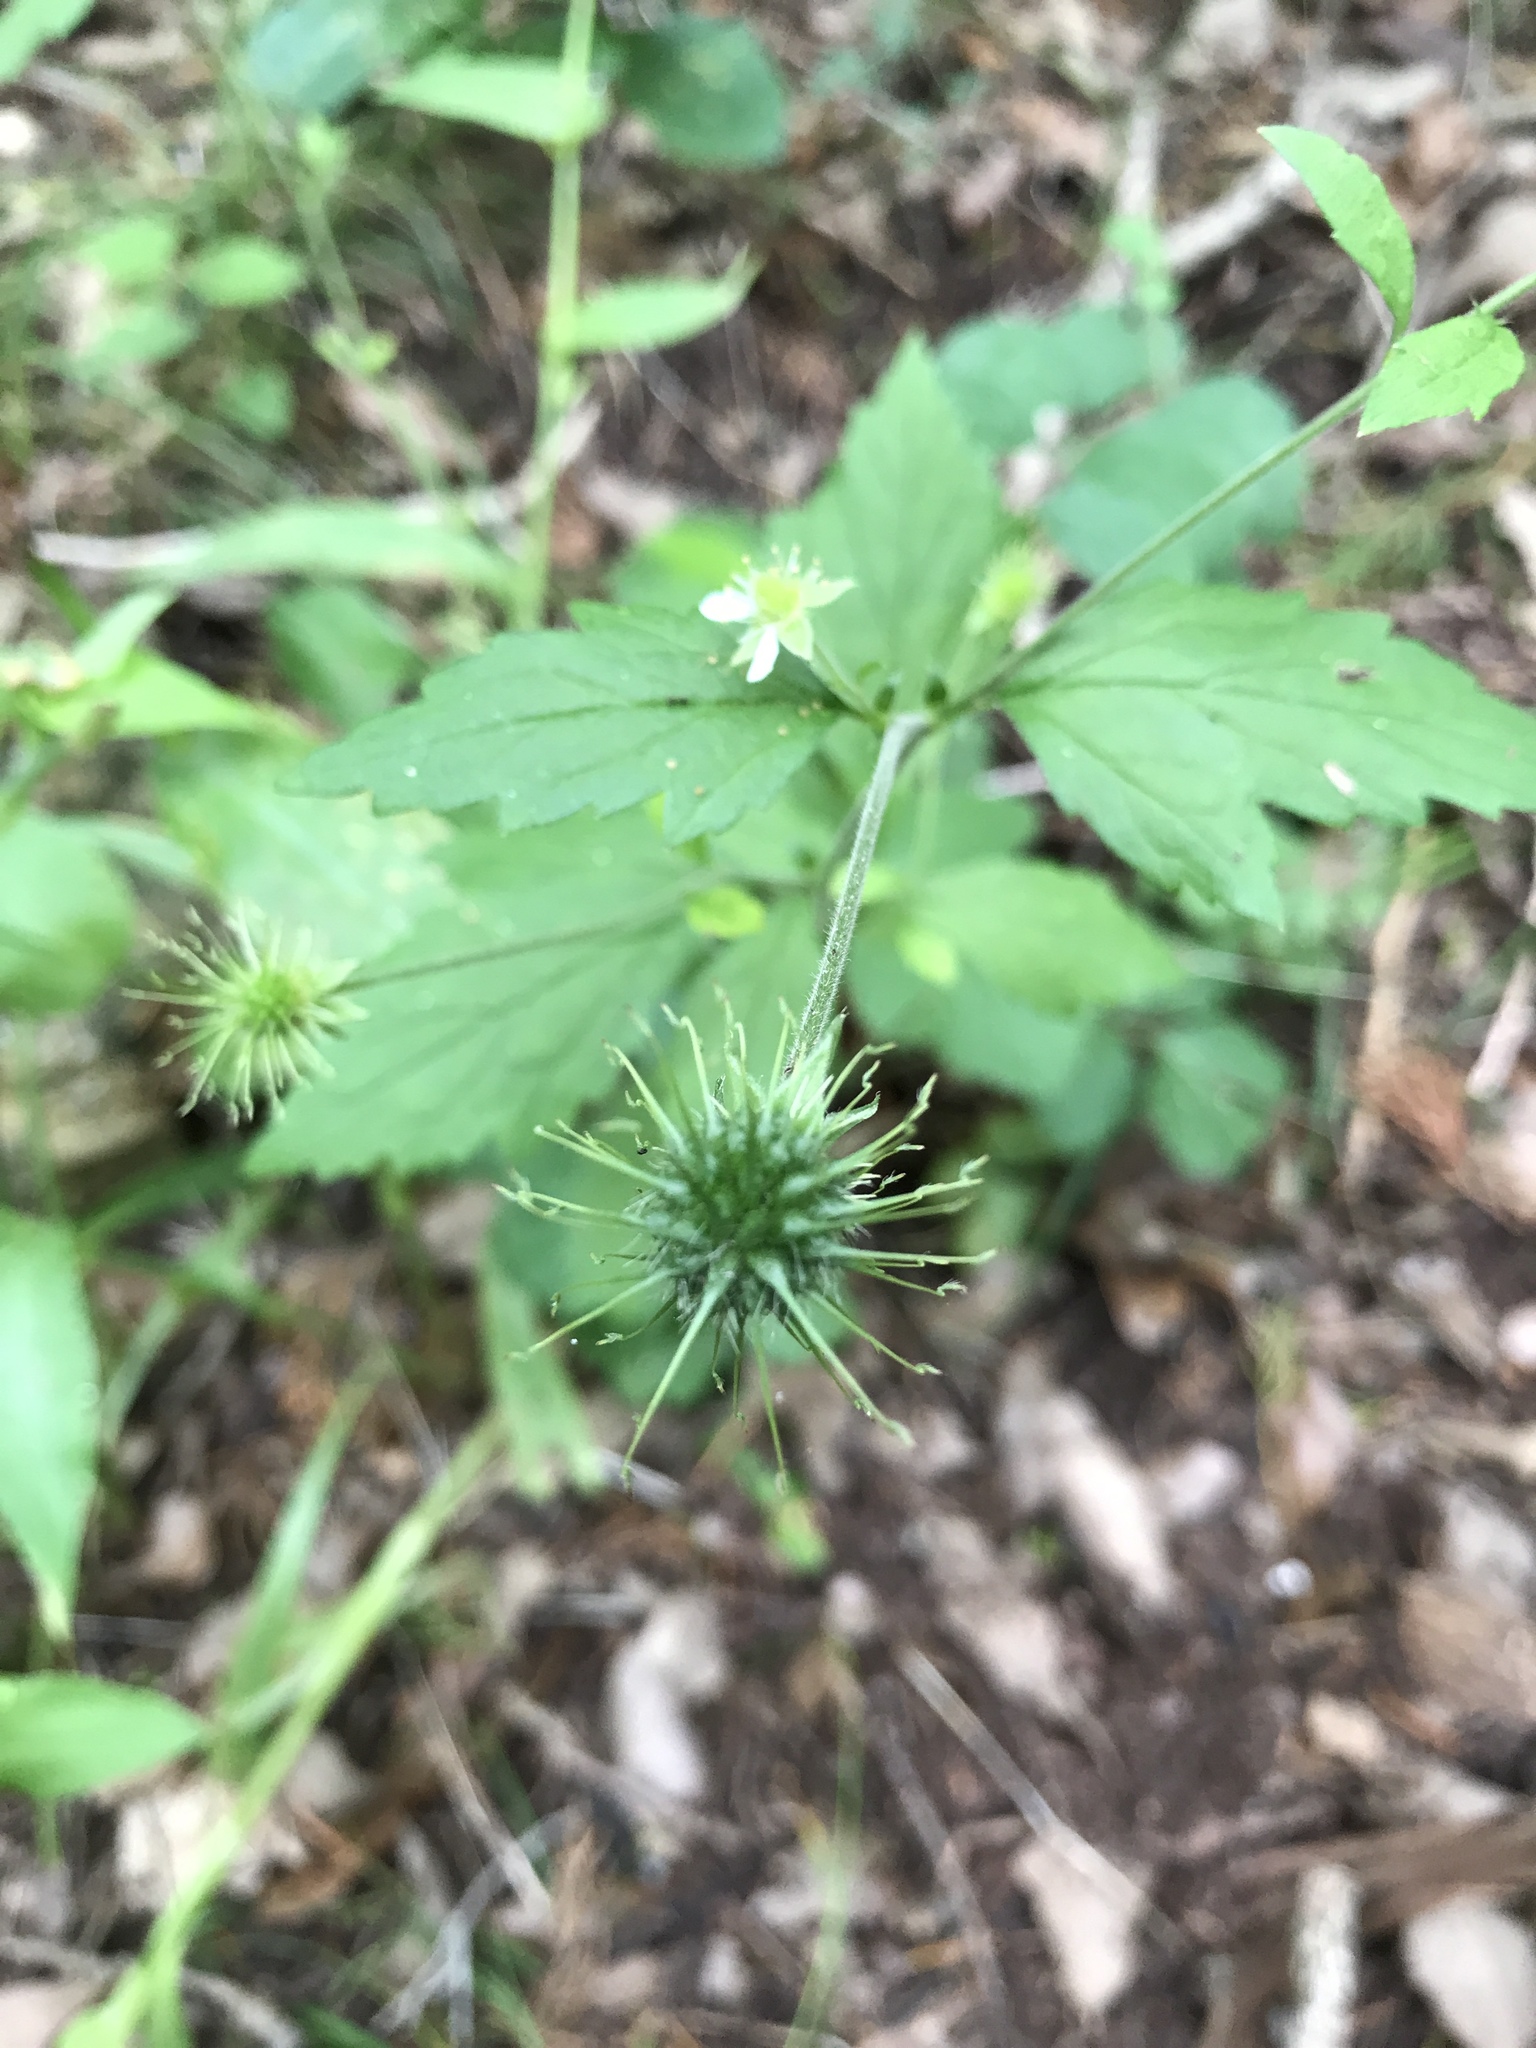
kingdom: Plantae
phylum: Tracheophyta
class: Magnoliopsida
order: Rosales
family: Rosaceae
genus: Geum
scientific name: Geum canadense
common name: White avens
